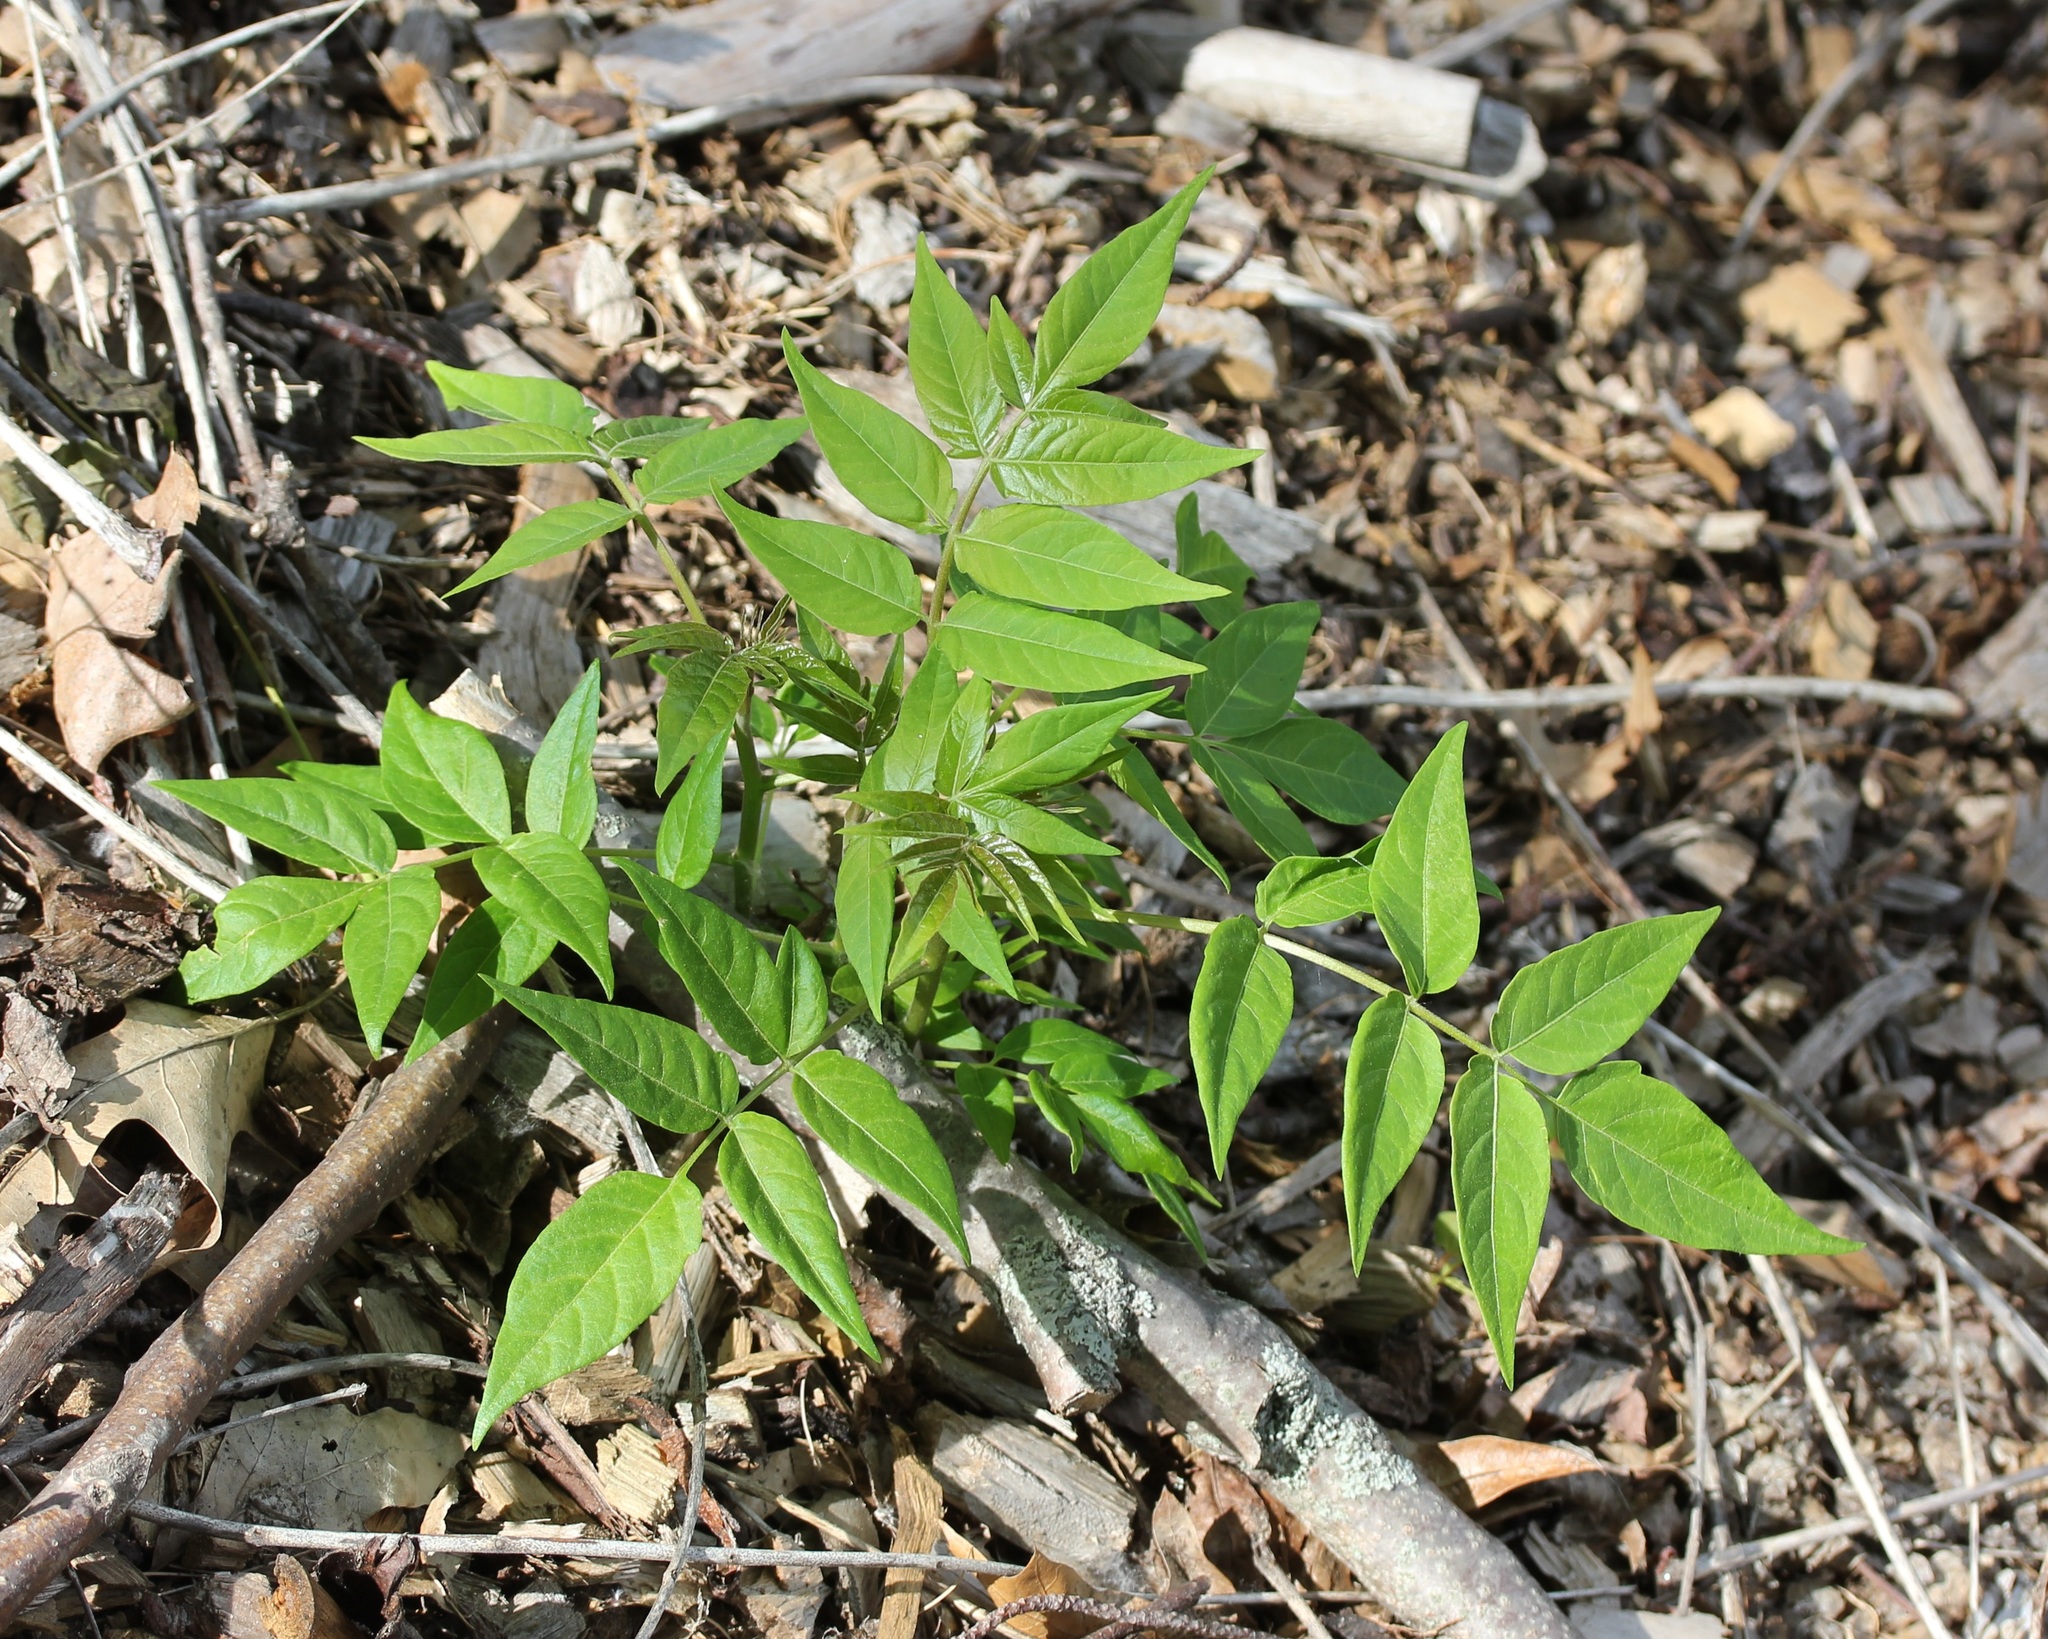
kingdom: Plantae
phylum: Tracheophyta
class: Magnoliopsida
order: Sapindales
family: Simaroubaceae
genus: Ailanthus
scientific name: Ailanthus altissima
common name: Tree-of-heaven
